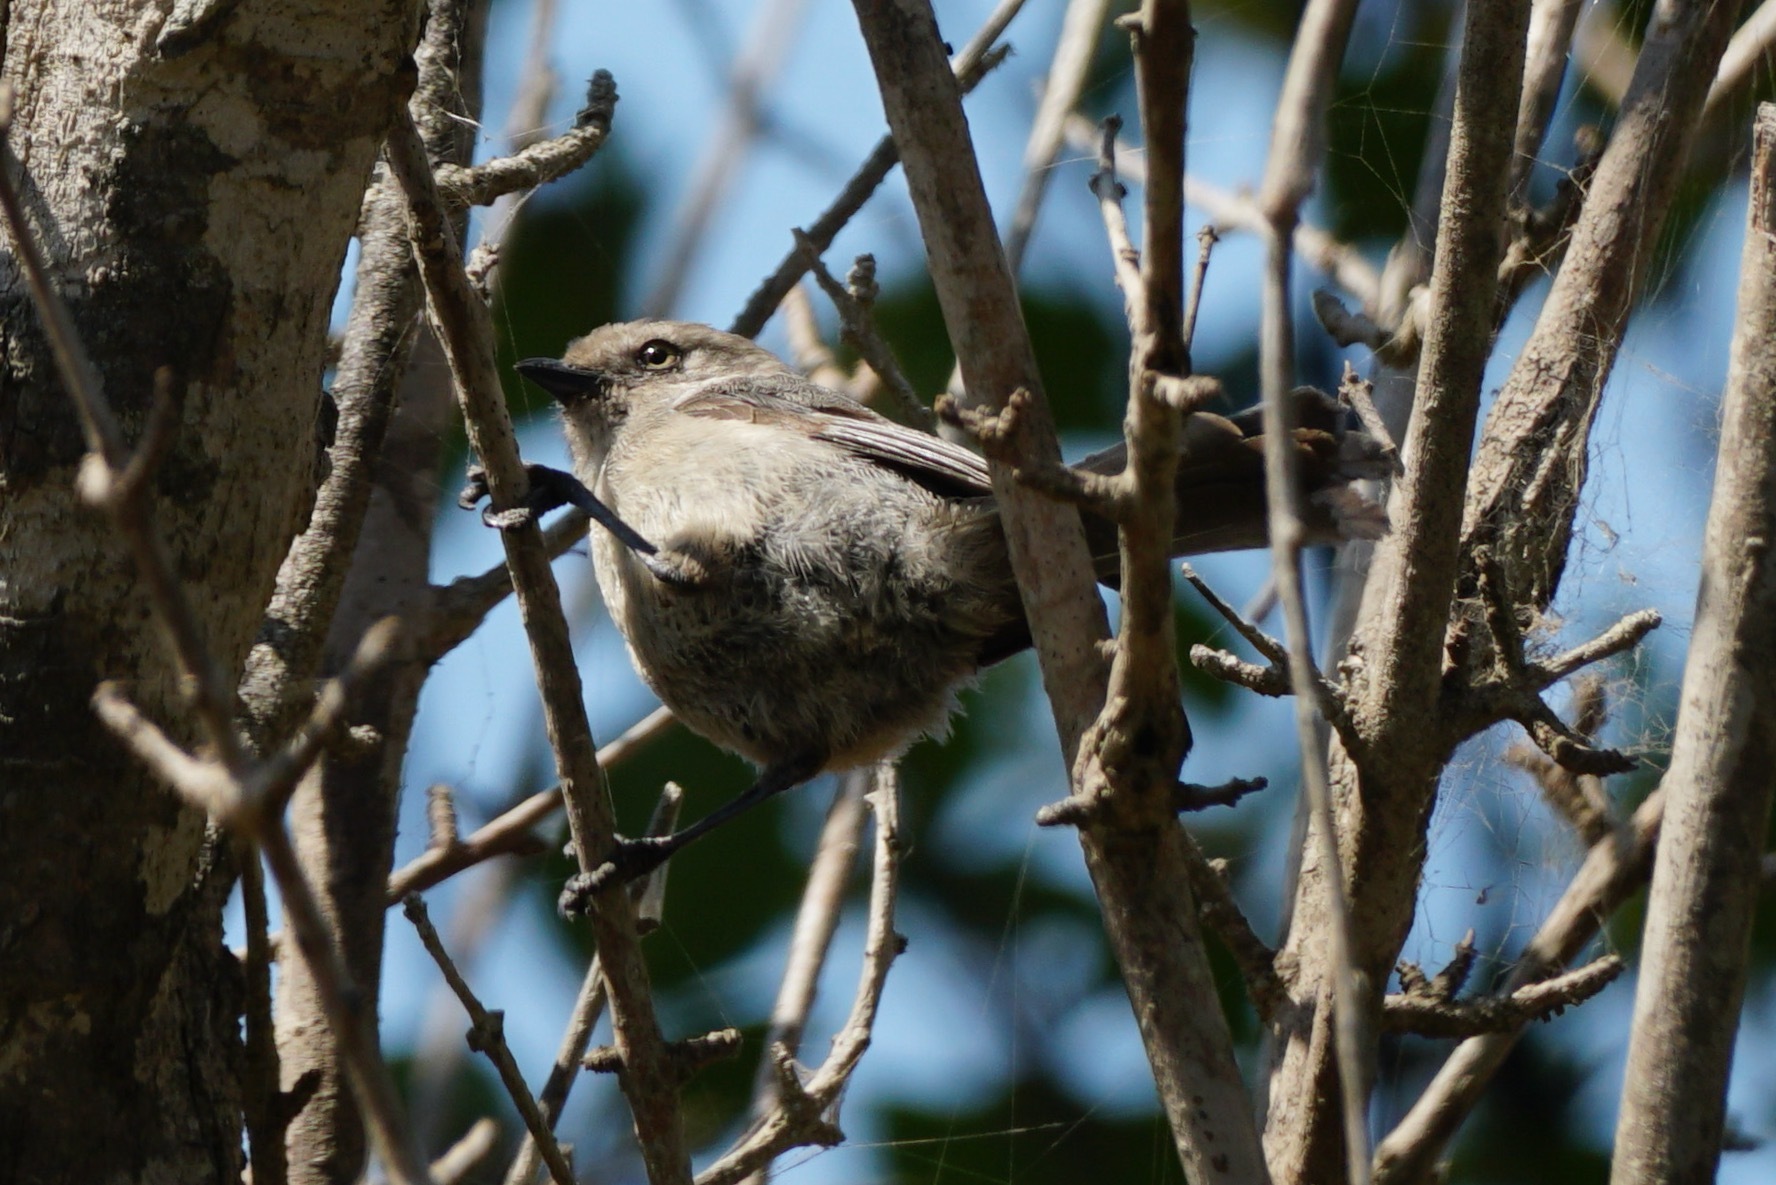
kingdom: Animalia
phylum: Chordata
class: Aves
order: Passeriformes
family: Aegithalidae
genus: Psaltriparus
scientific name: Psaltriparus minimus
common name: American bushtit
